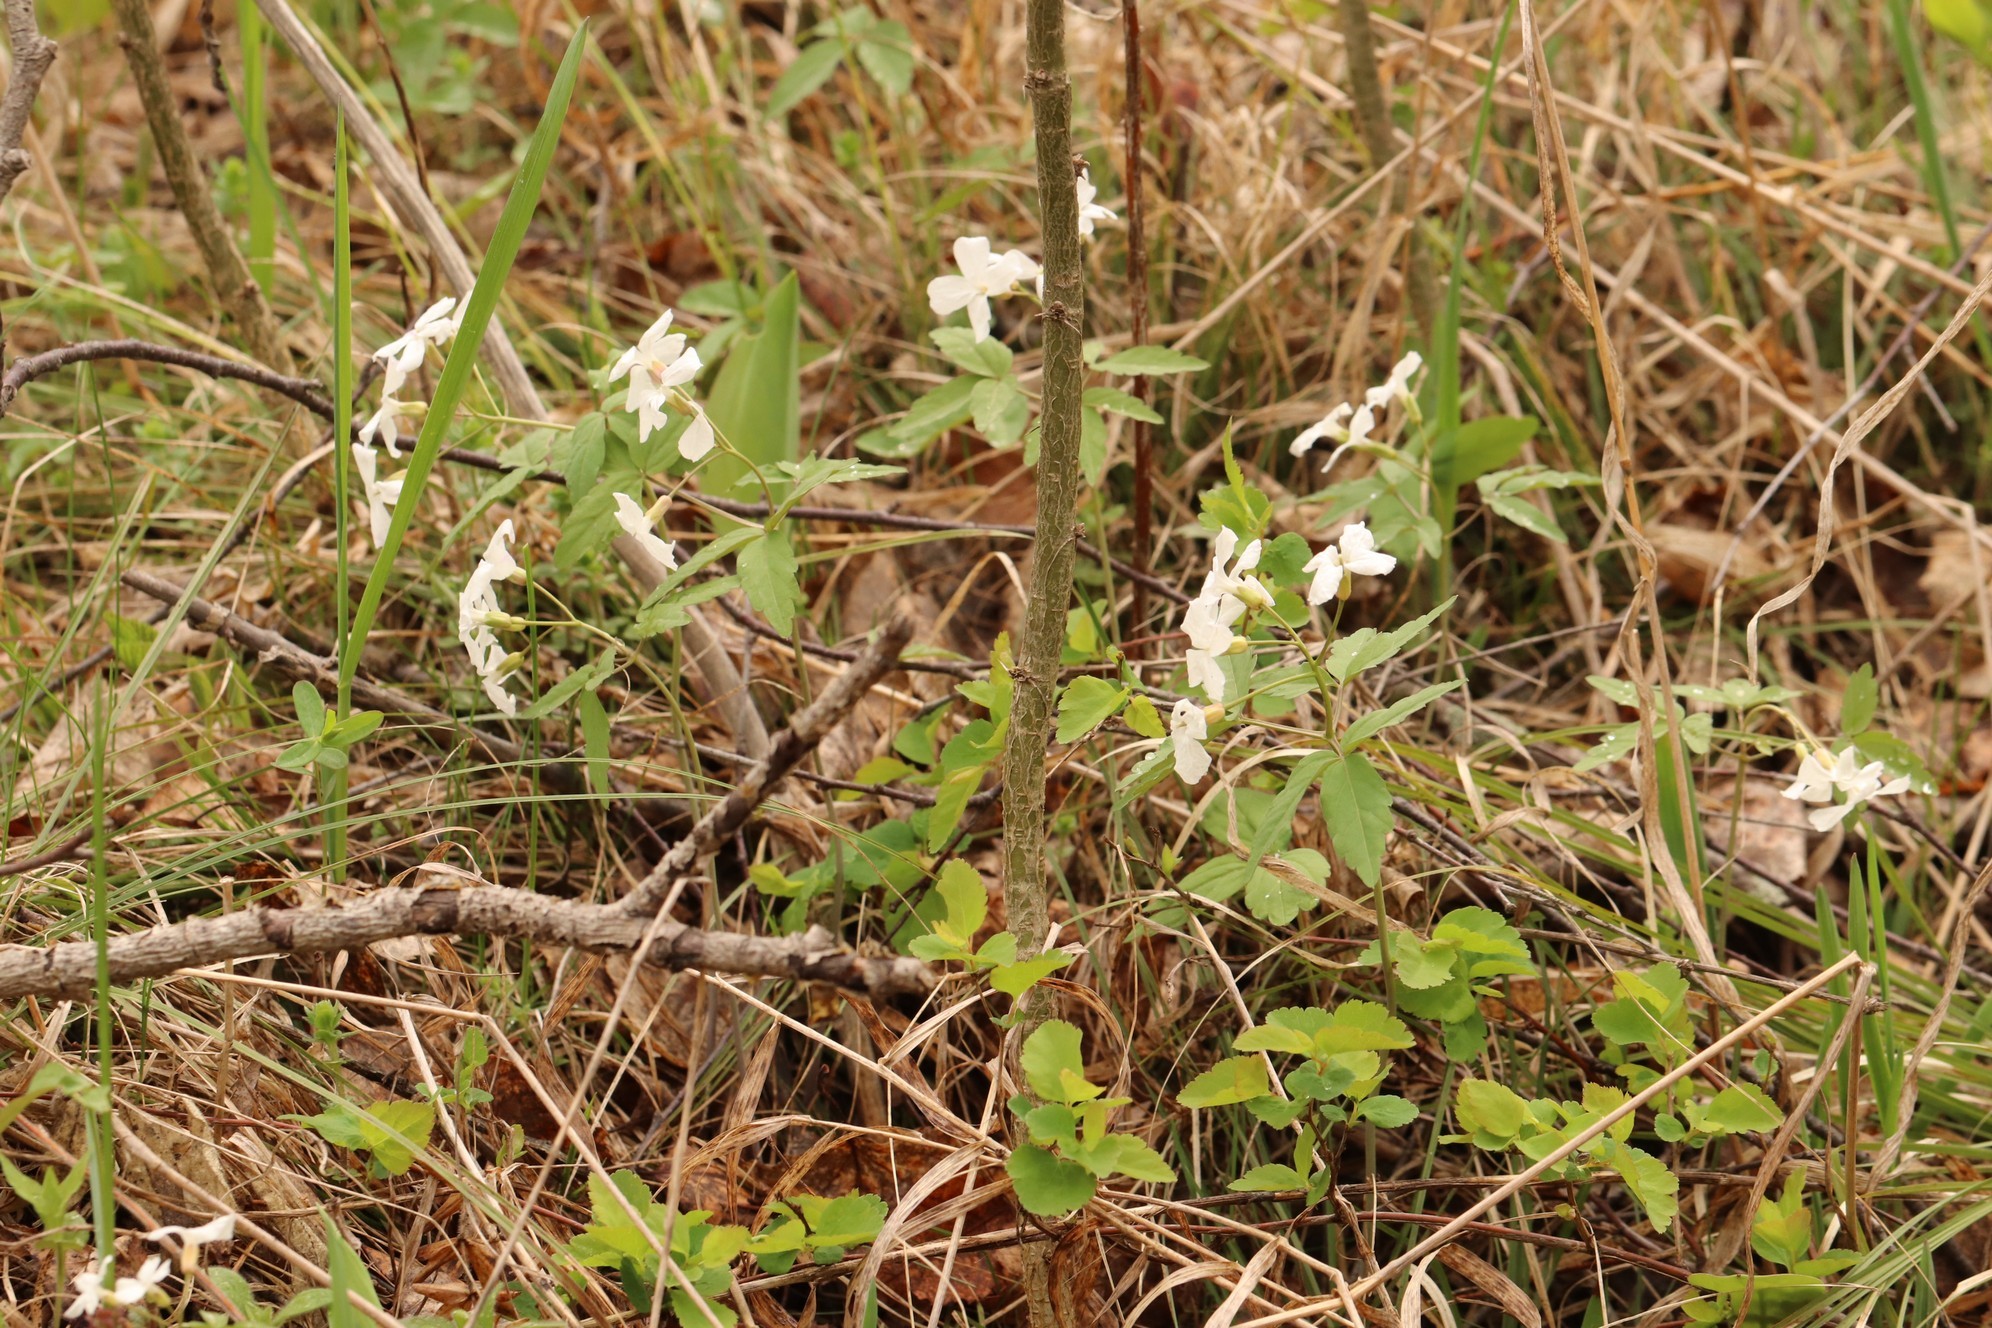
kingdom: Plantae
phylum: Tracheophyta
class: Magnoliopsida
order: Brassicales
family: Brassicaceae
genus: Cardamine
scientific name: Cardamine altaica
